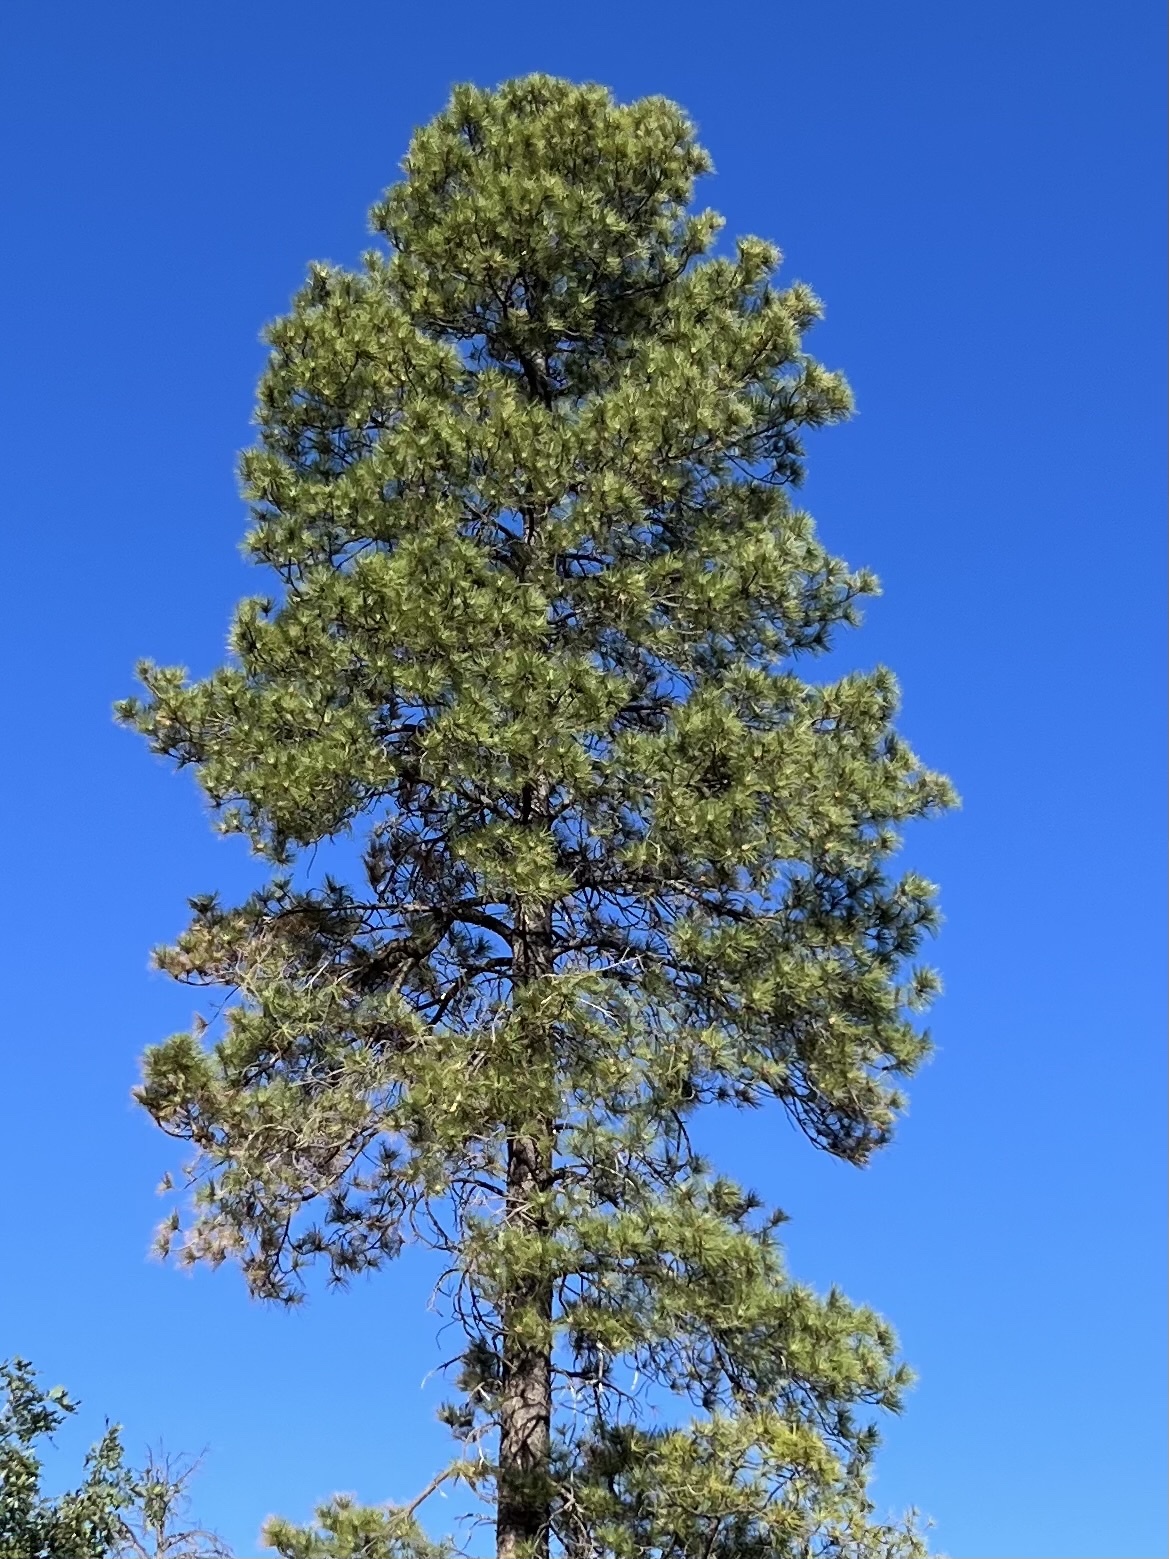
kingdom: Plantae
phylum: Tracheophyta
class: Pinopsida
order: Pinales
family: Pinaceae
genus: Pinus
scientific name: Pinus ponderosa
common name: Western yellow-pine
